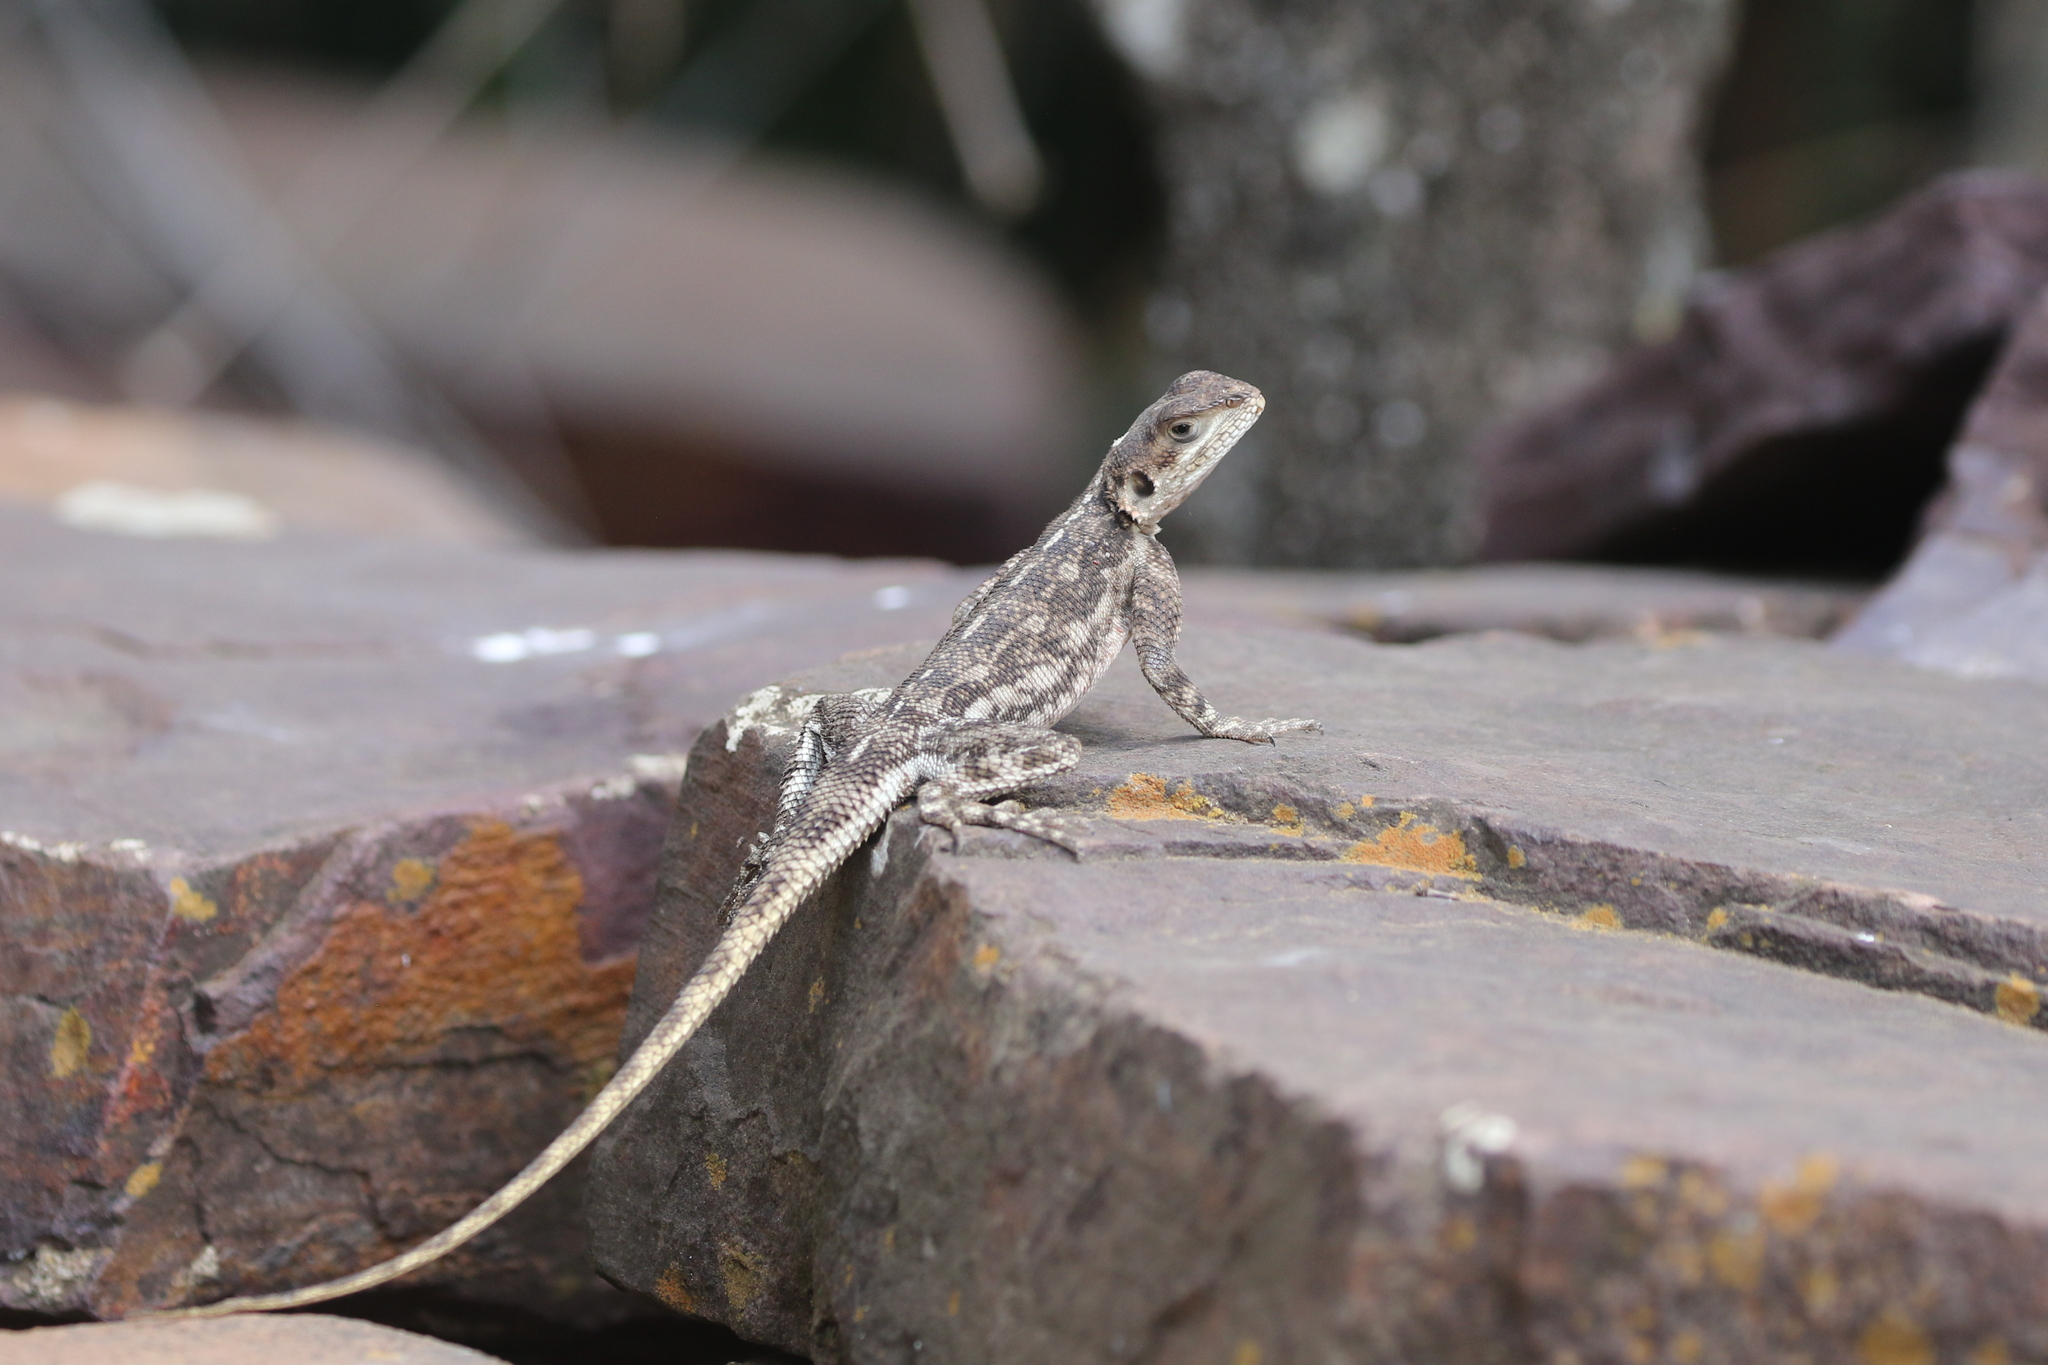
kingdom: Animalia
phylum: Chordata
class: Squamata
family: Agamidae
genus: Agama
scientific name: Agama mwanzae
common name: Mwanza flat-headed agama
